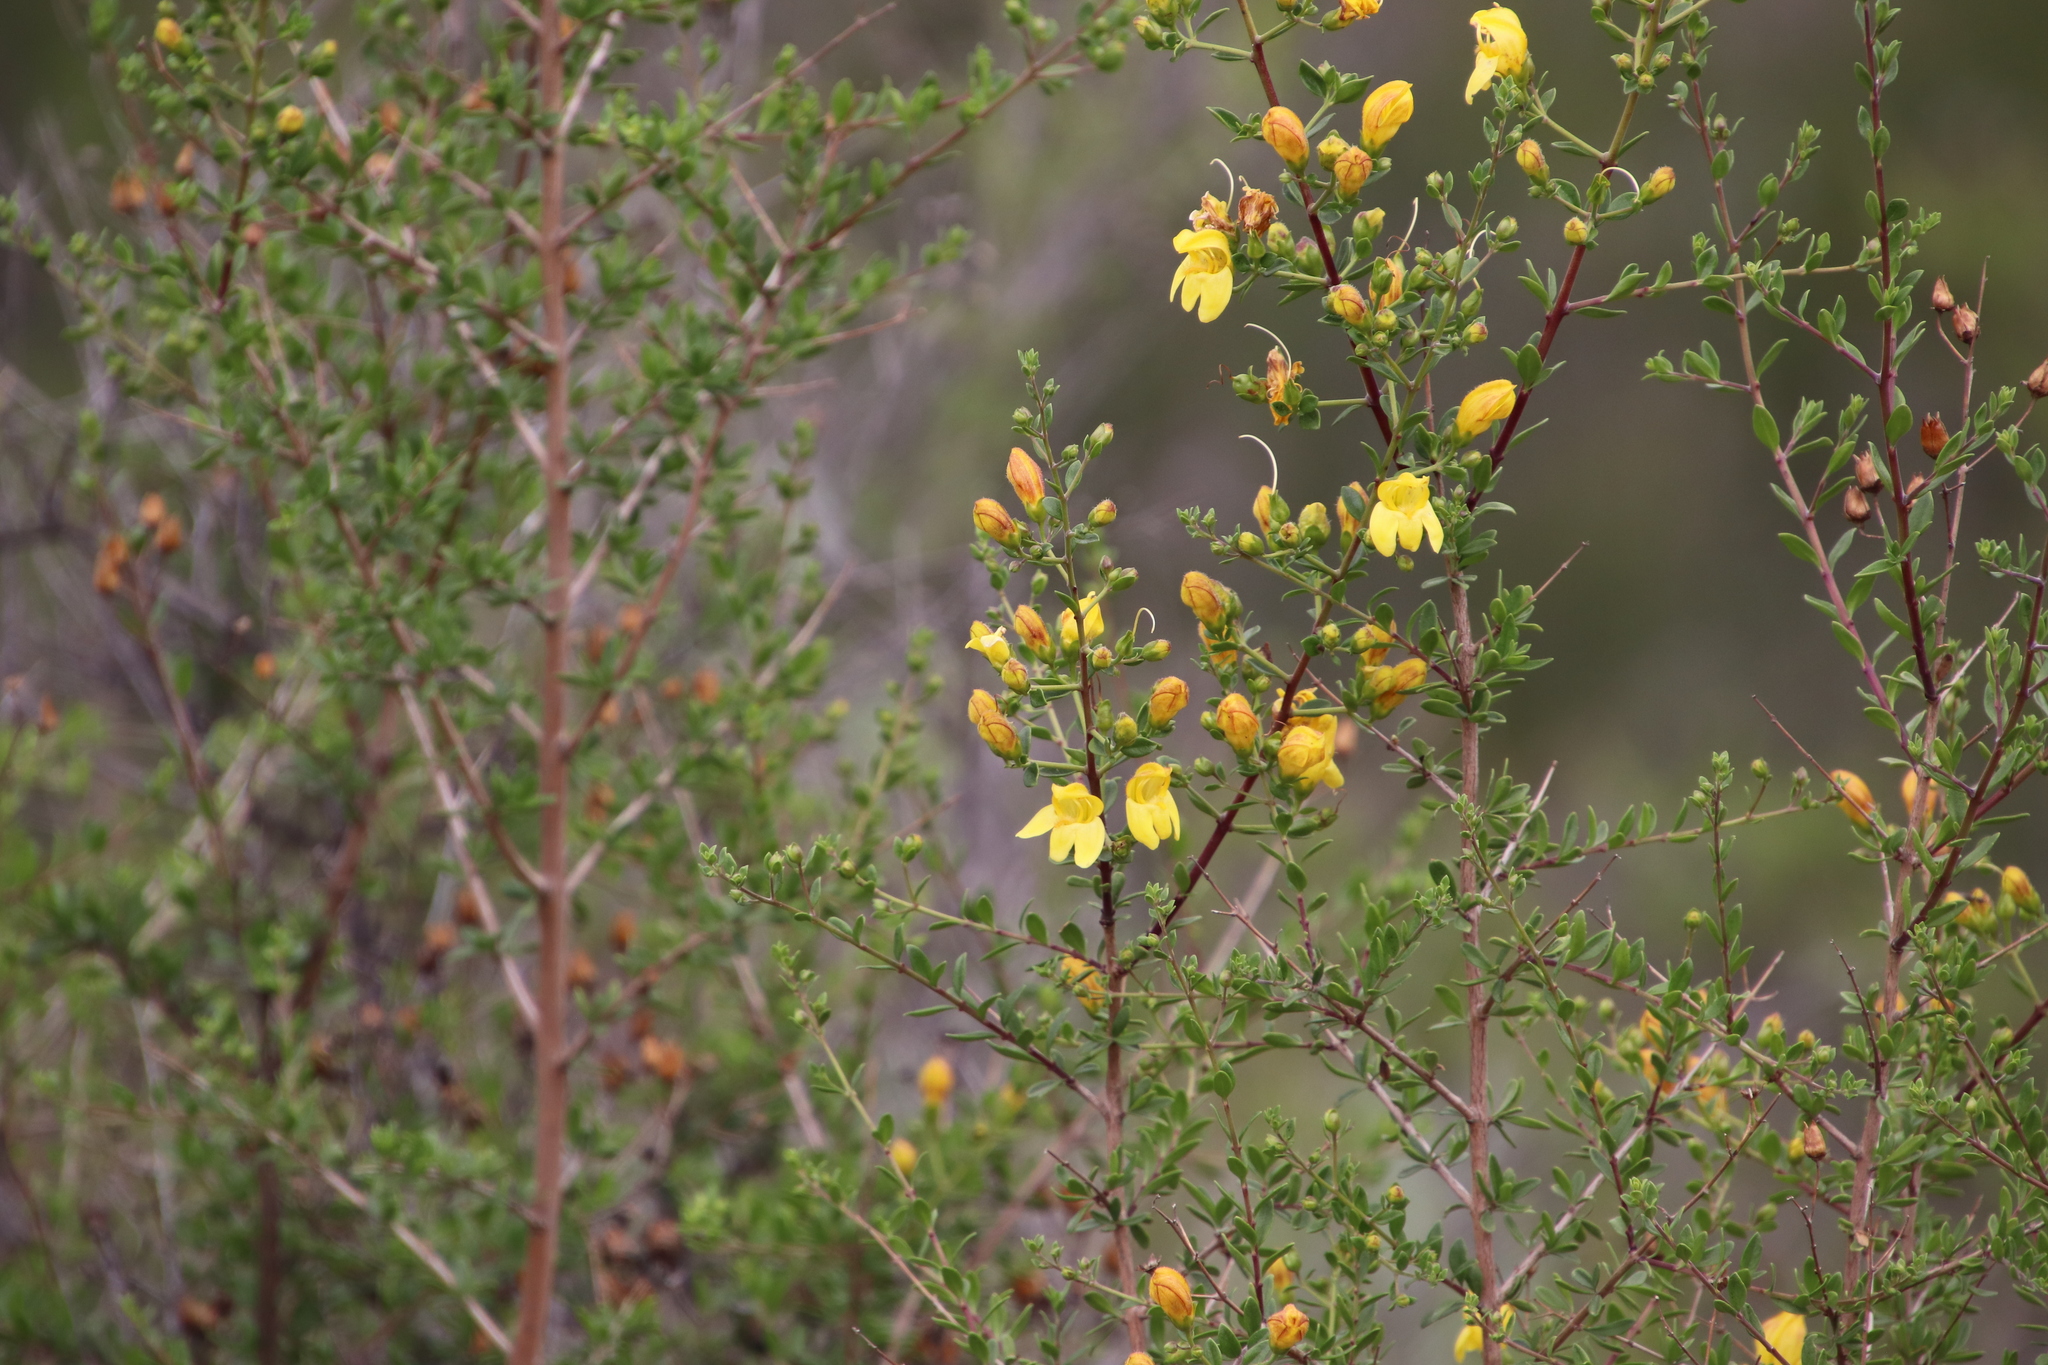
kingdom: Plantae
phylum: Tracheophyta
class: Magnoliopsida
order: Lamiales
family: Plantaginaceae
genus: Keckiella
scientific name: Keckiella antirrhinoides
